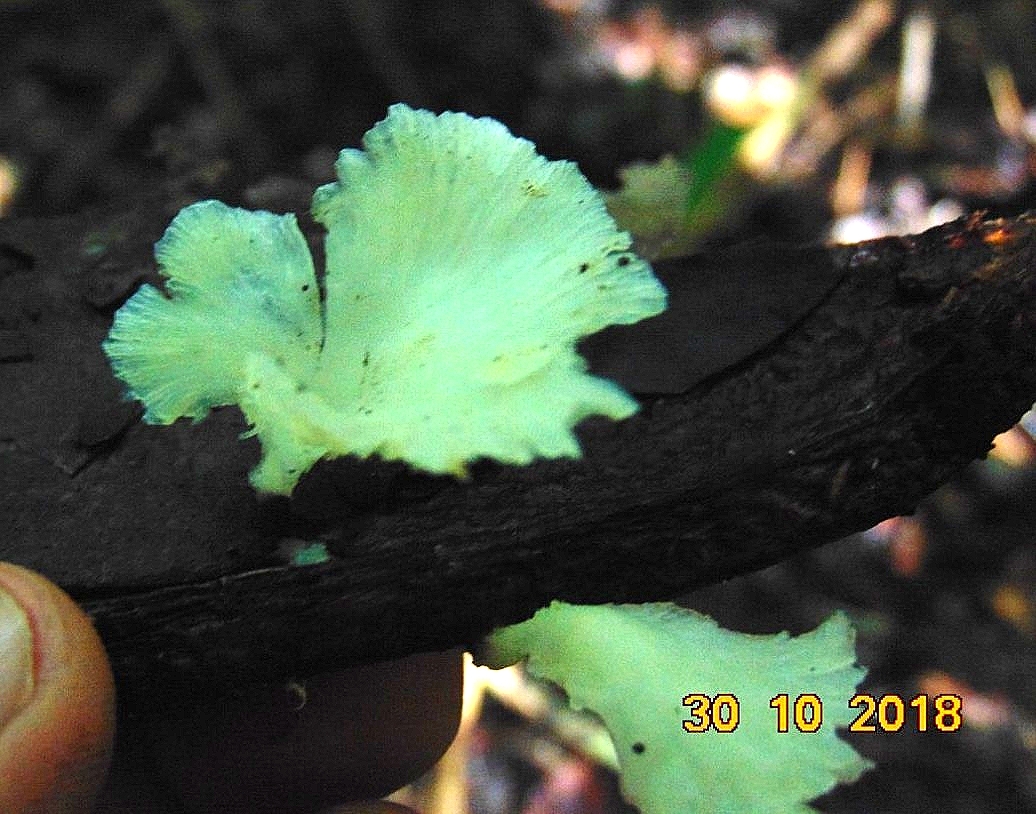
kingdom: Fungi
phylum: Basidiomycota
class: Agaricomycetes
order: Hymenochaetales
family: Rickenellaceae
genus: Cotylidia
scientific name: Cotylidia aurantiaca
